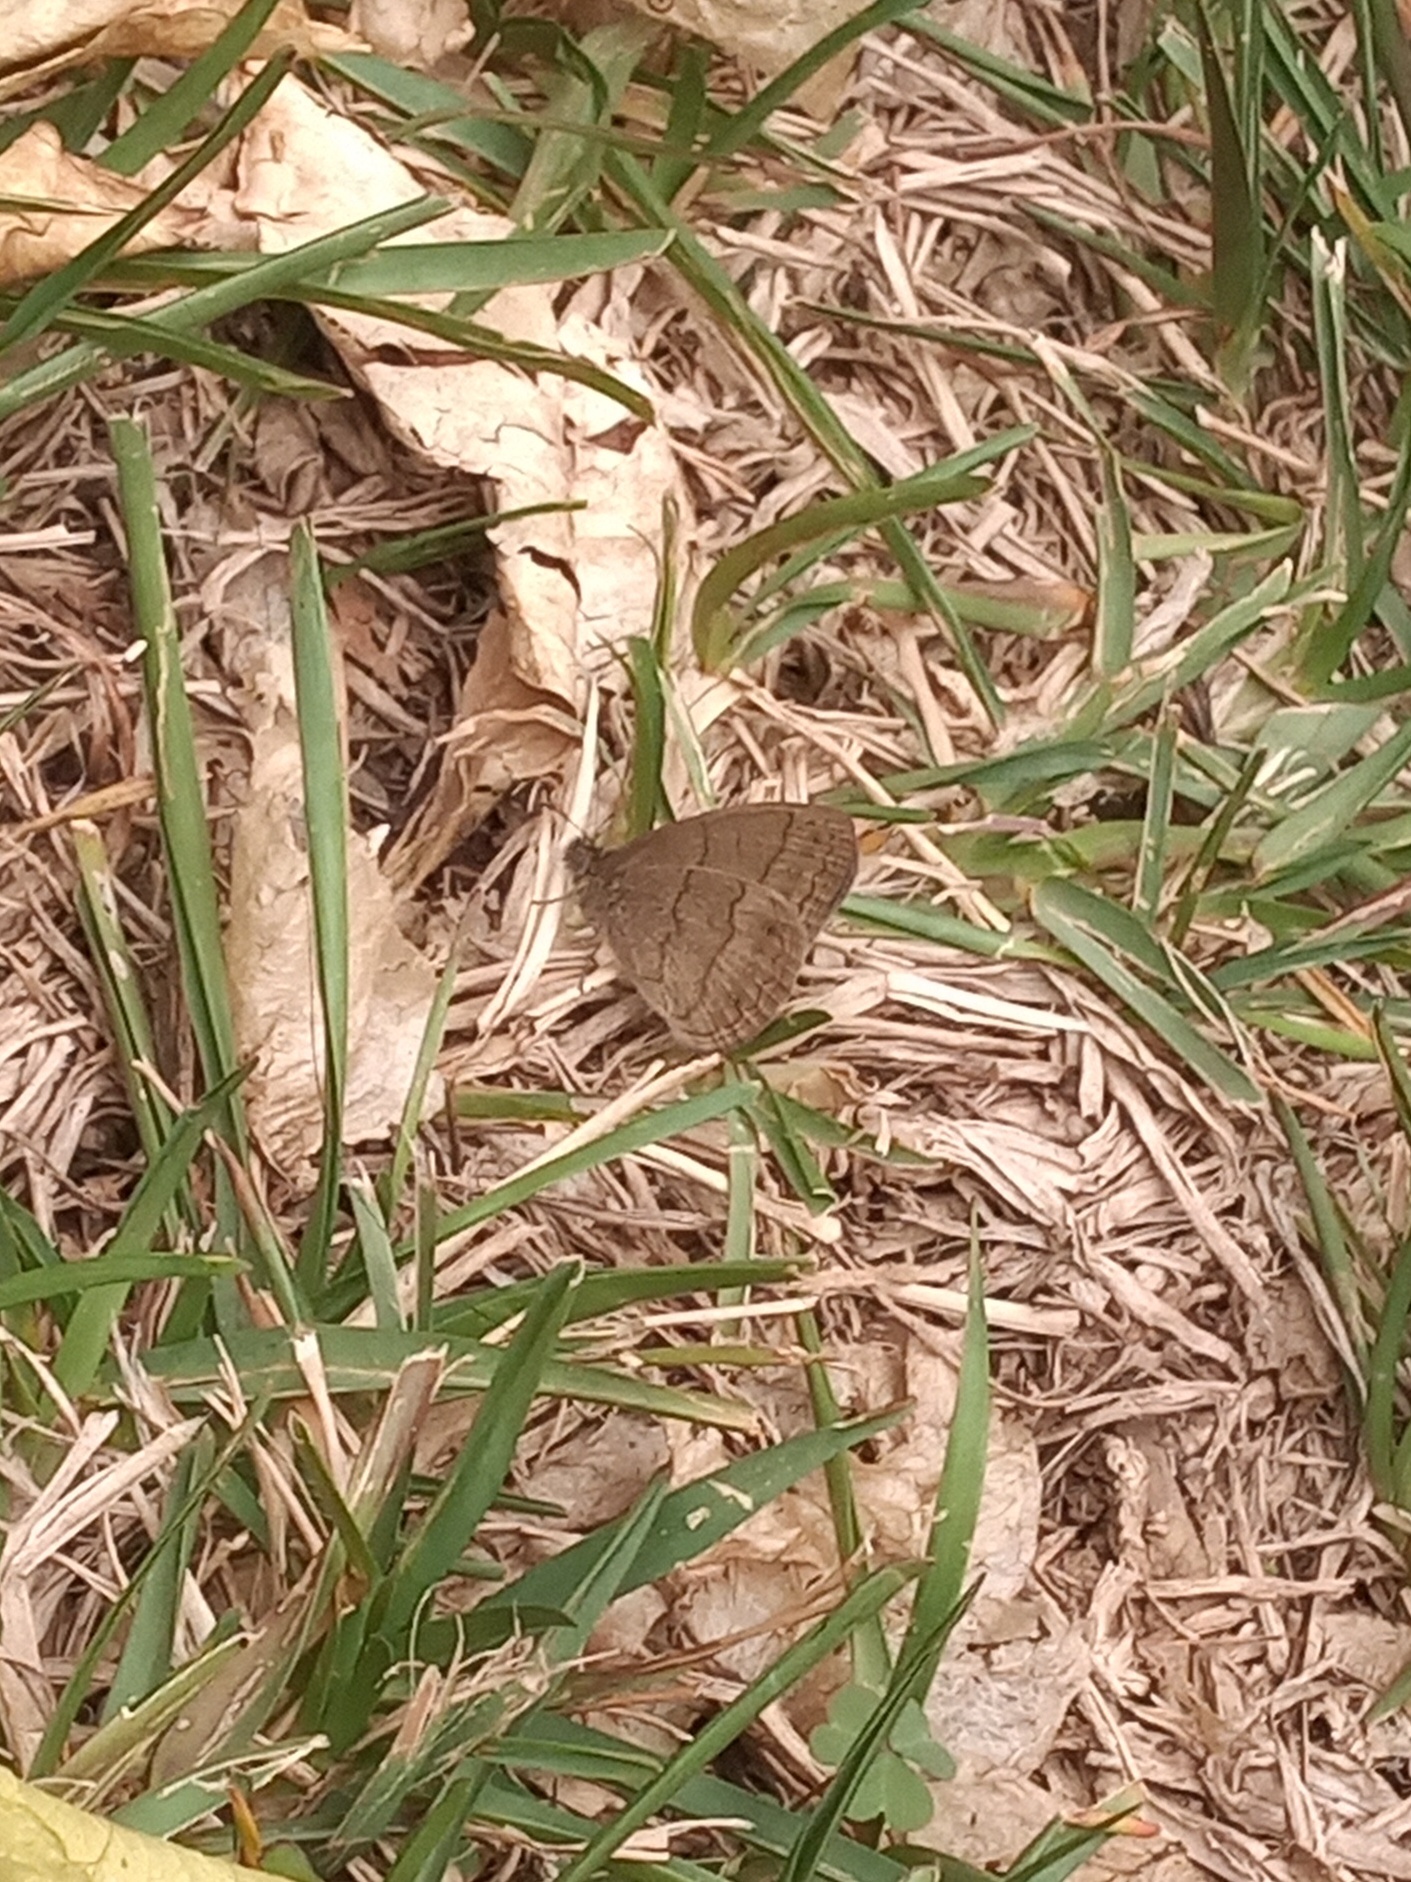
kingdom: Animalia
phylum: Arthropoda
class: Insecta
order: Lepidoptera
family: Nymphalidae
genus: Hermeuptychia
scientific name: Hermeuptychia hermybius
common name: South texas satyr
